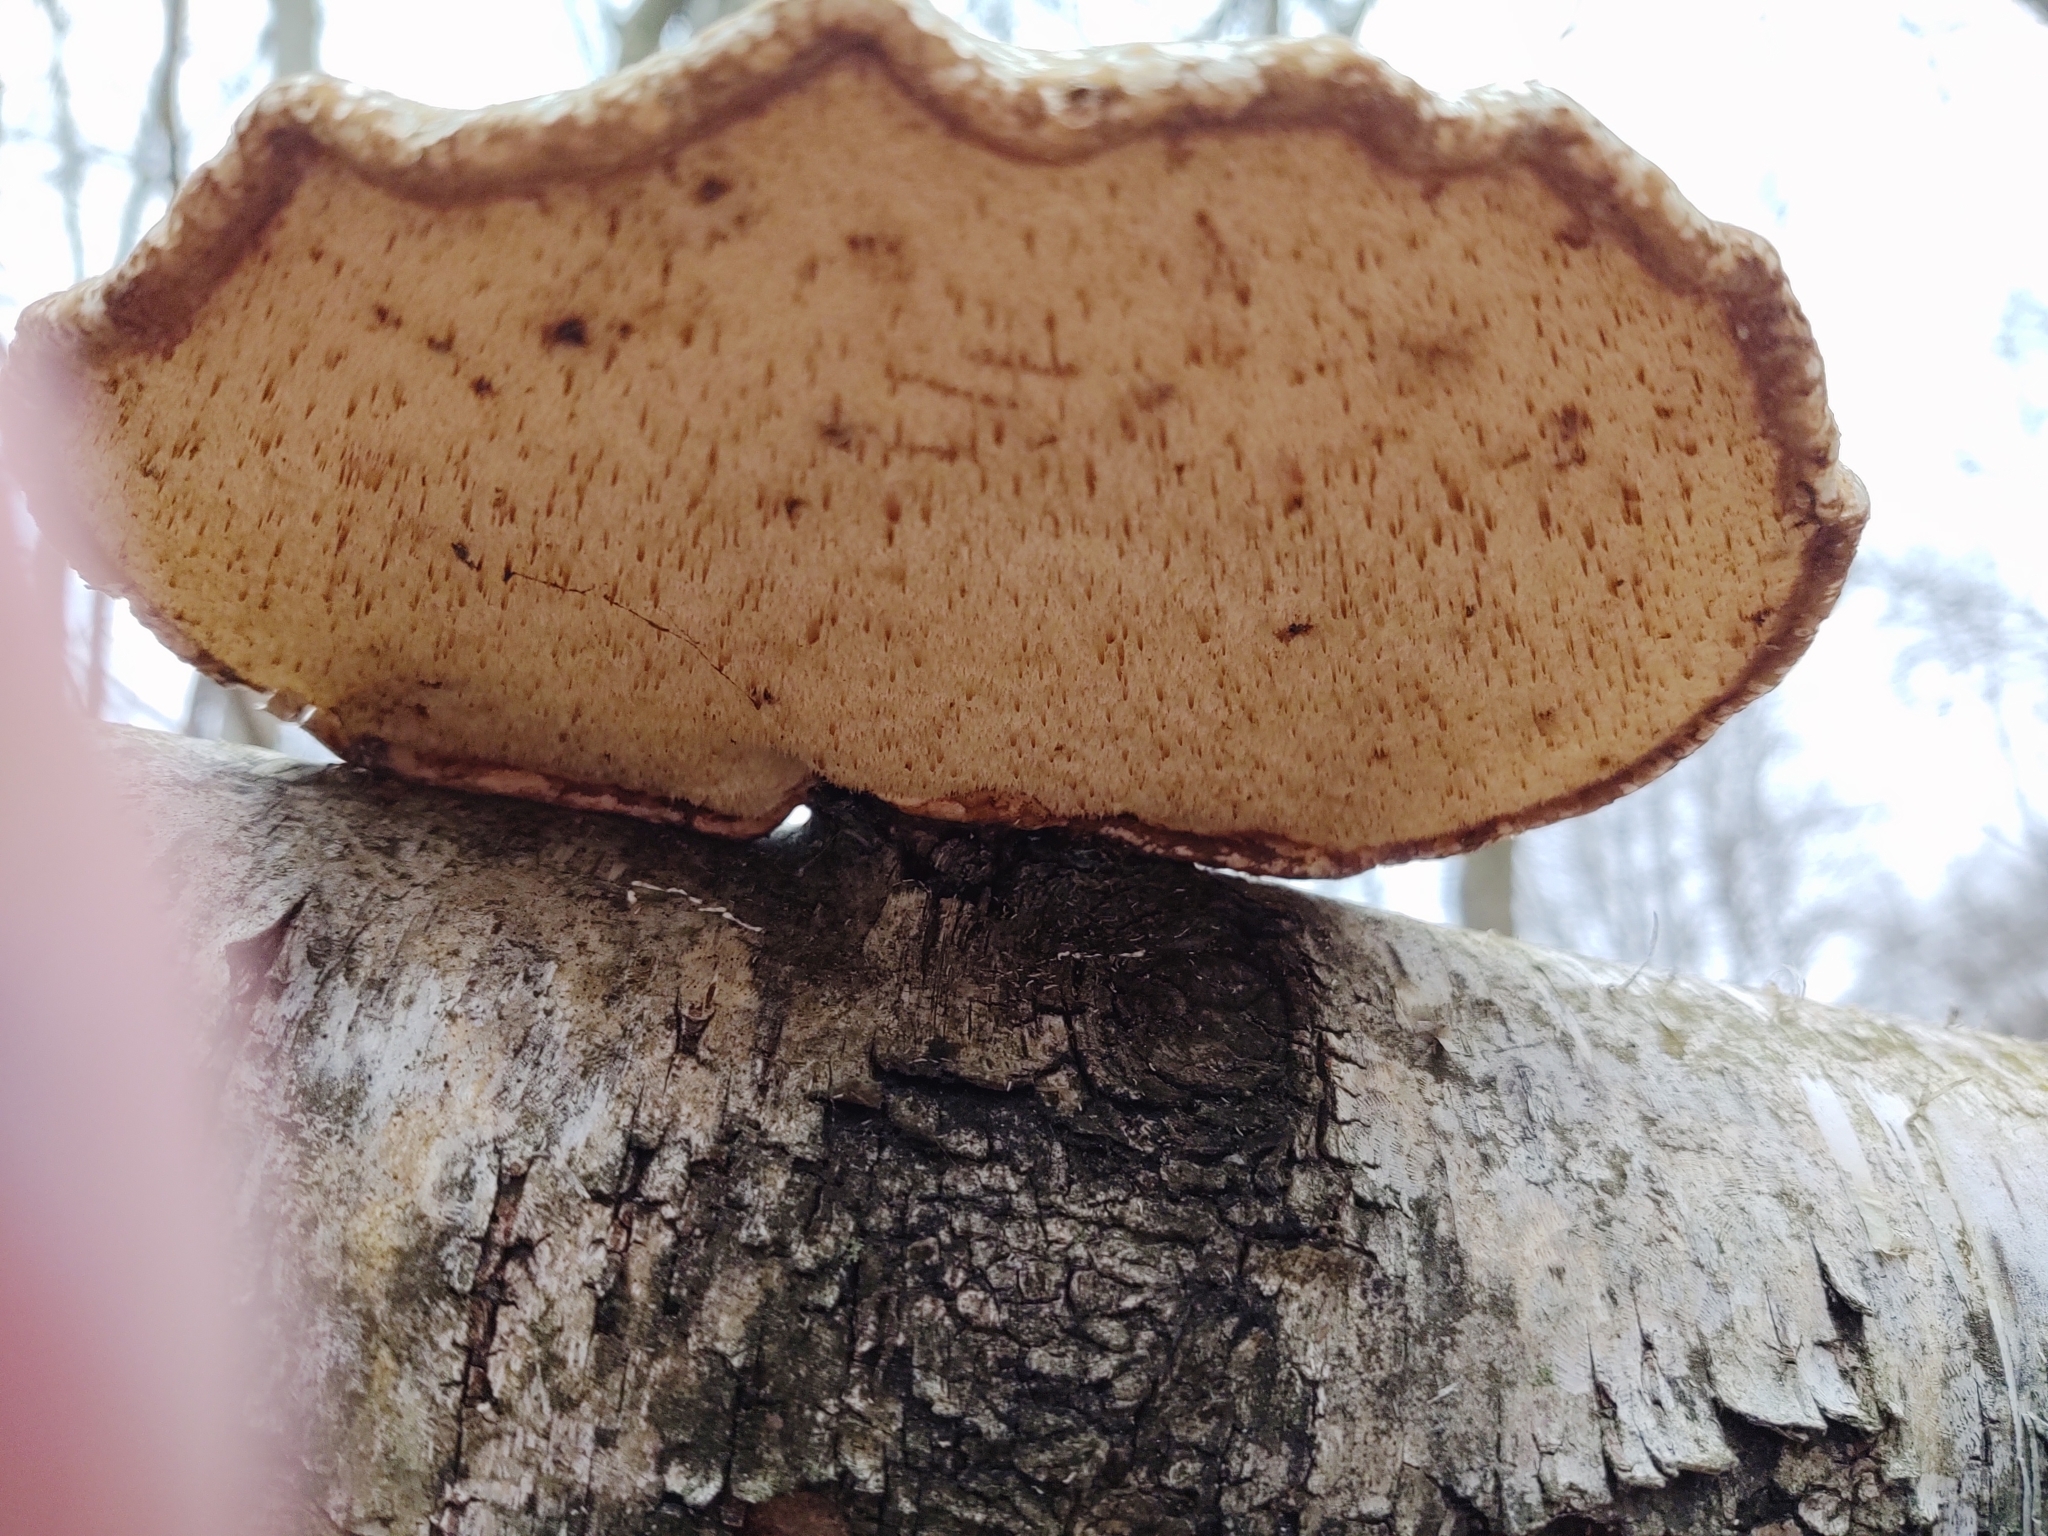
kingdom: Fungi
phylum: Basidiomycota
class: Agaricomycetes
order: Polyporales
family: Fomitopsidaceae
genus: Fomitopsis
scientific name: Fomitopsis betulina
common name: Birch polypore
